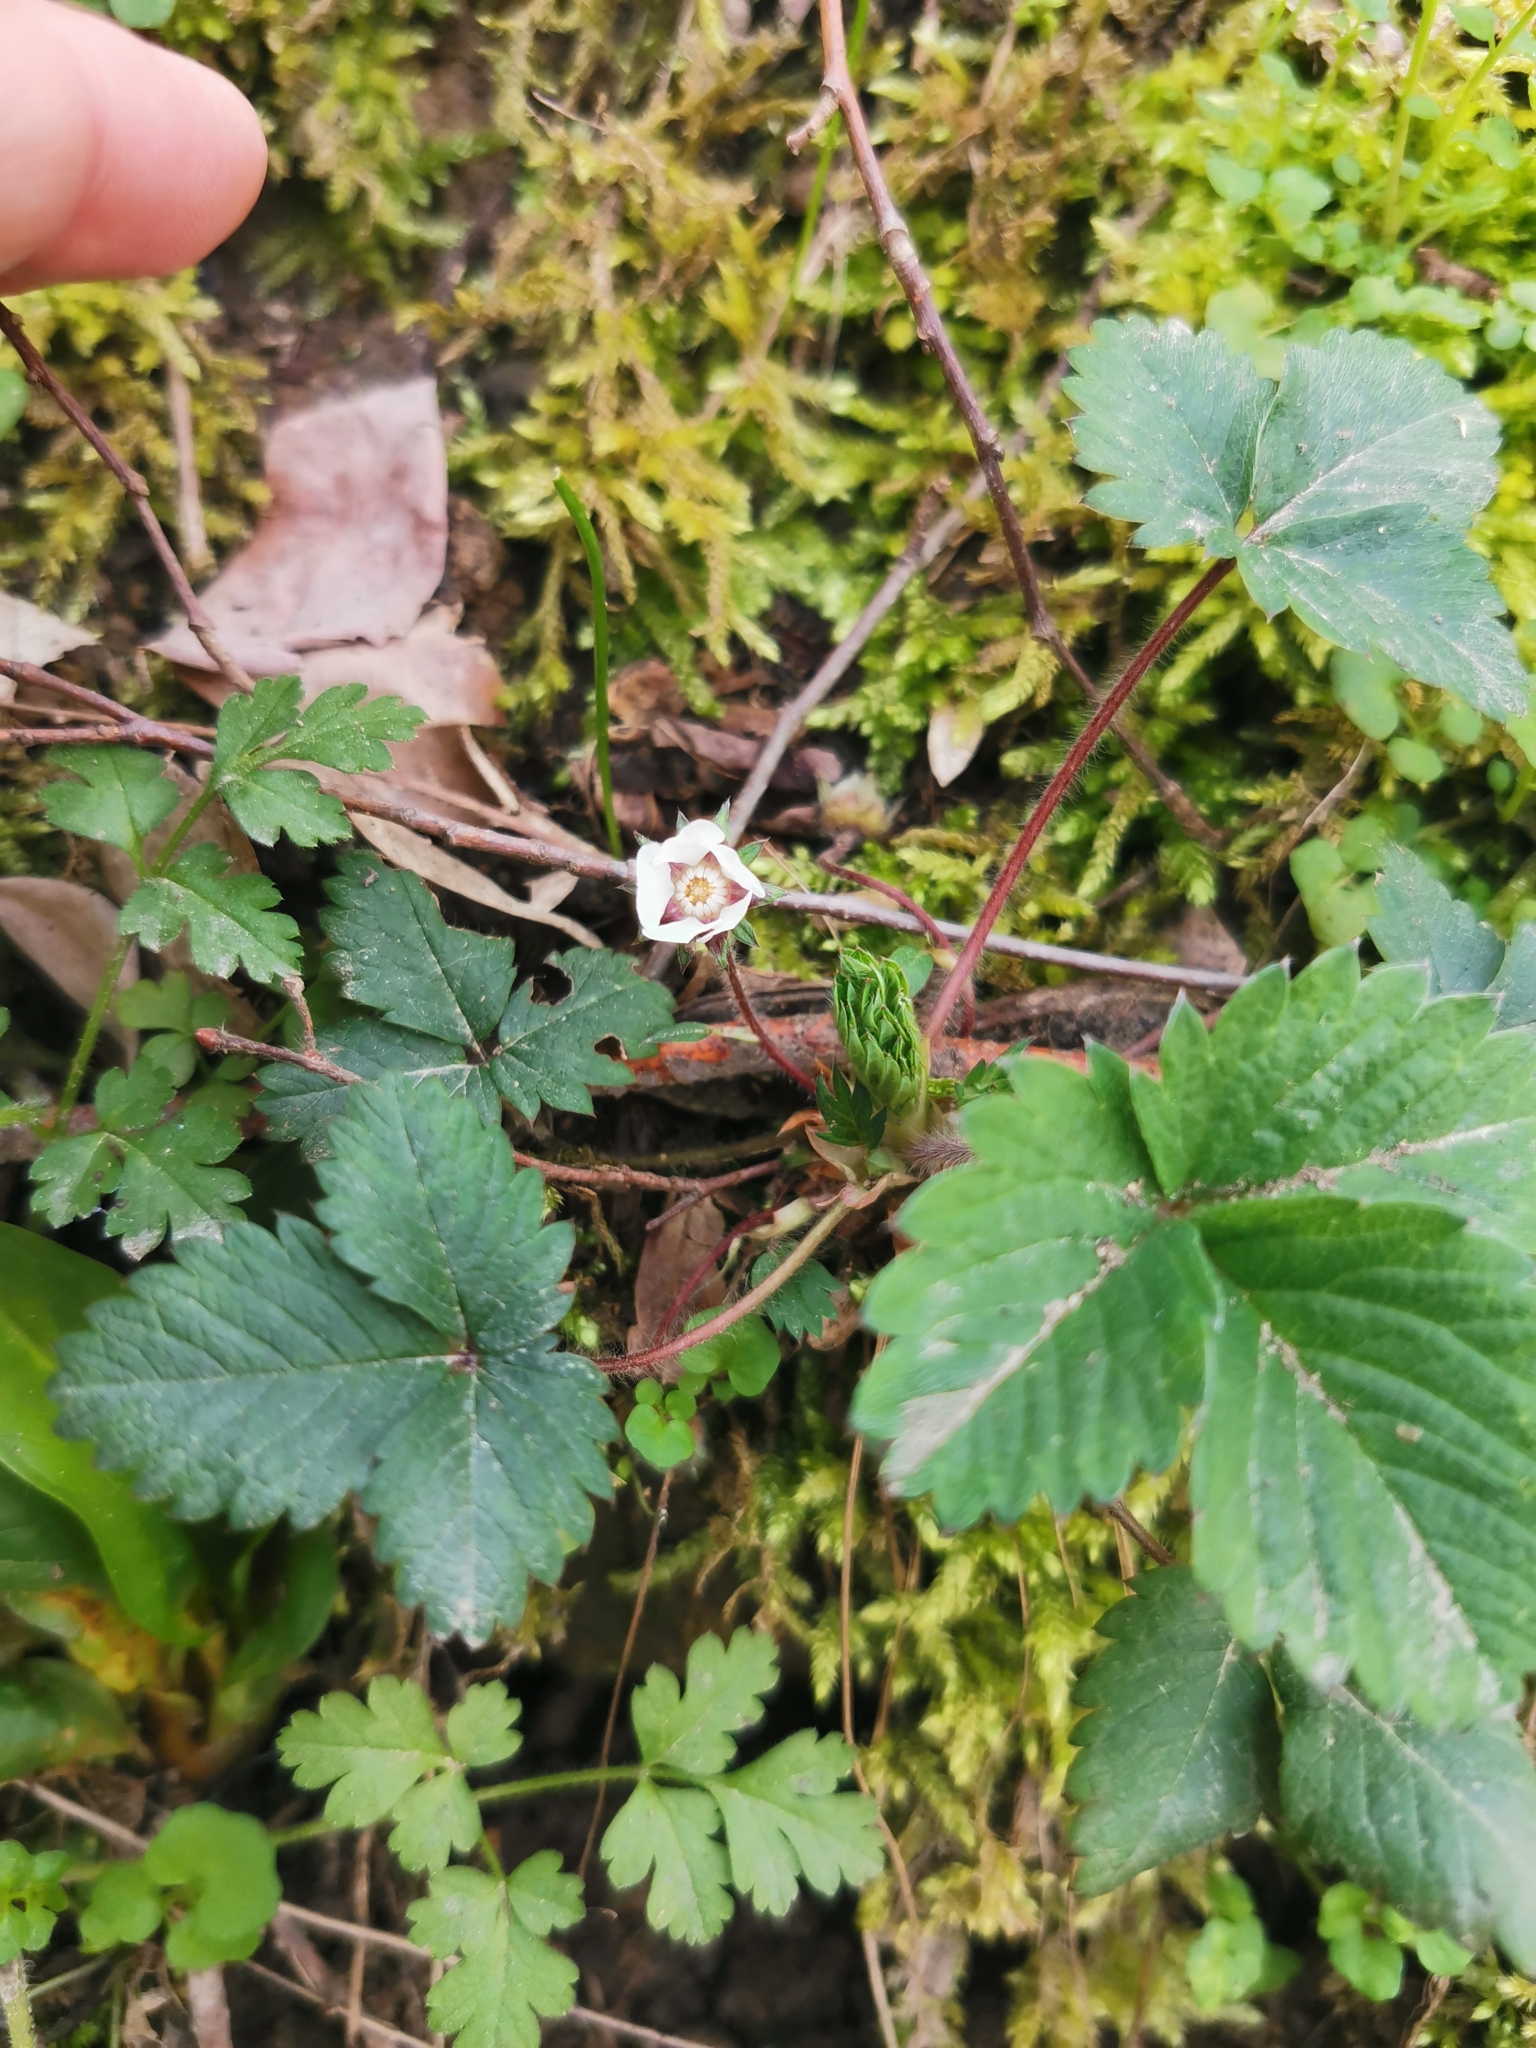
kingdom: Plantae
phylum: Tracheophyta
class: Magnoliopsida
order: Rosales
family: Rosaceae
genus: Potentilla
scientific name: Potentilla micrantha
